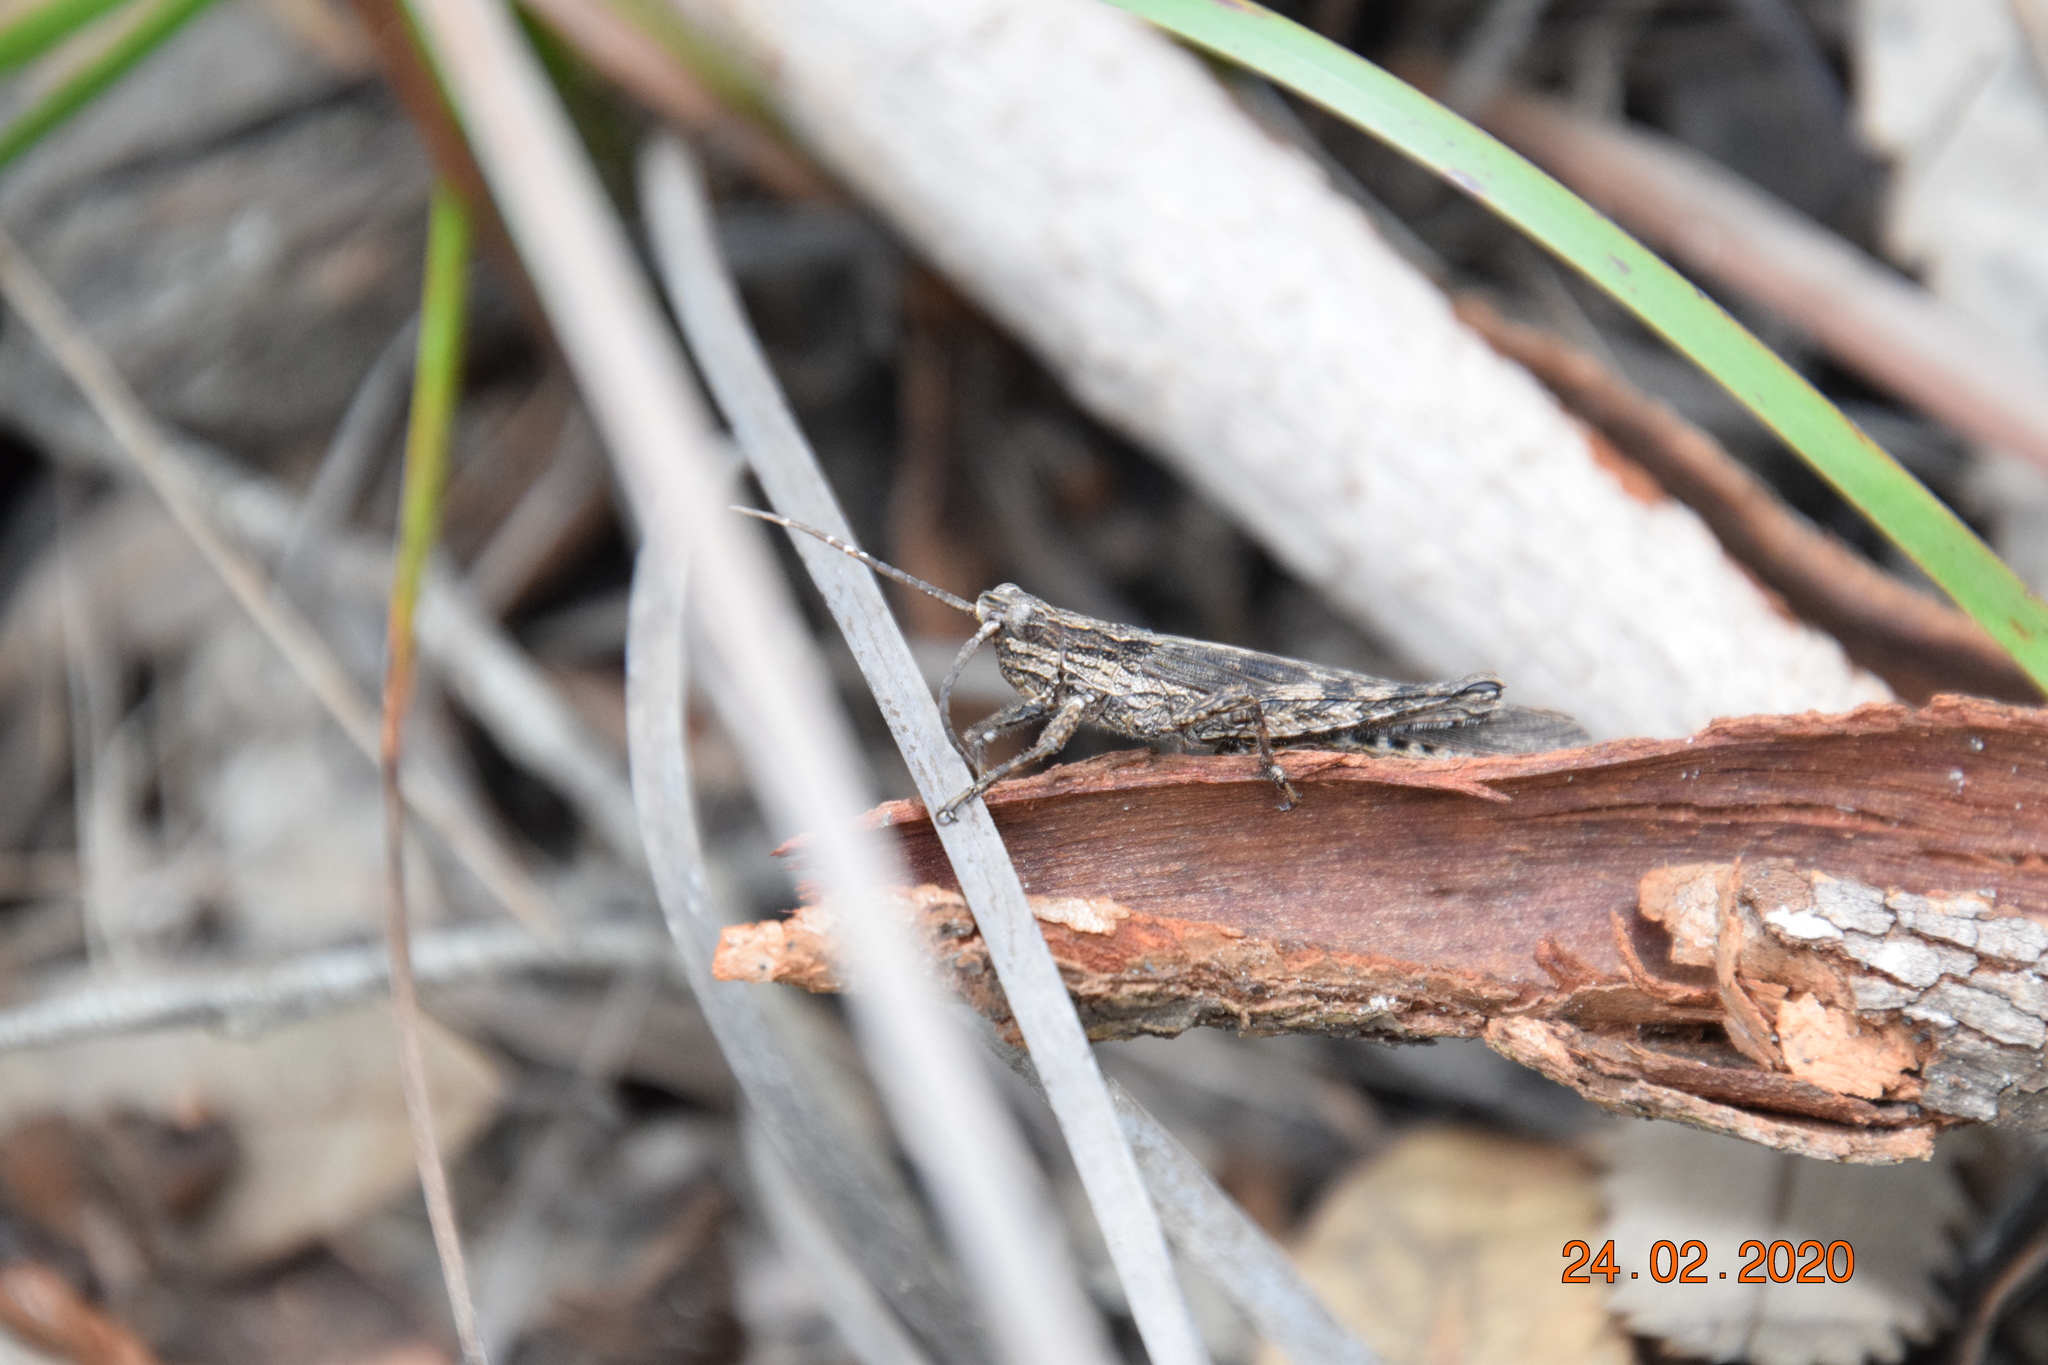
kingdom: Animalia
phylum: Arthropoda
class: Insecta
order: Orthoptera
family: Acrididae
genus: Coryphistes
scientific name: Coryphistes ruricola
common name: Bark-mimicking grasshopper
